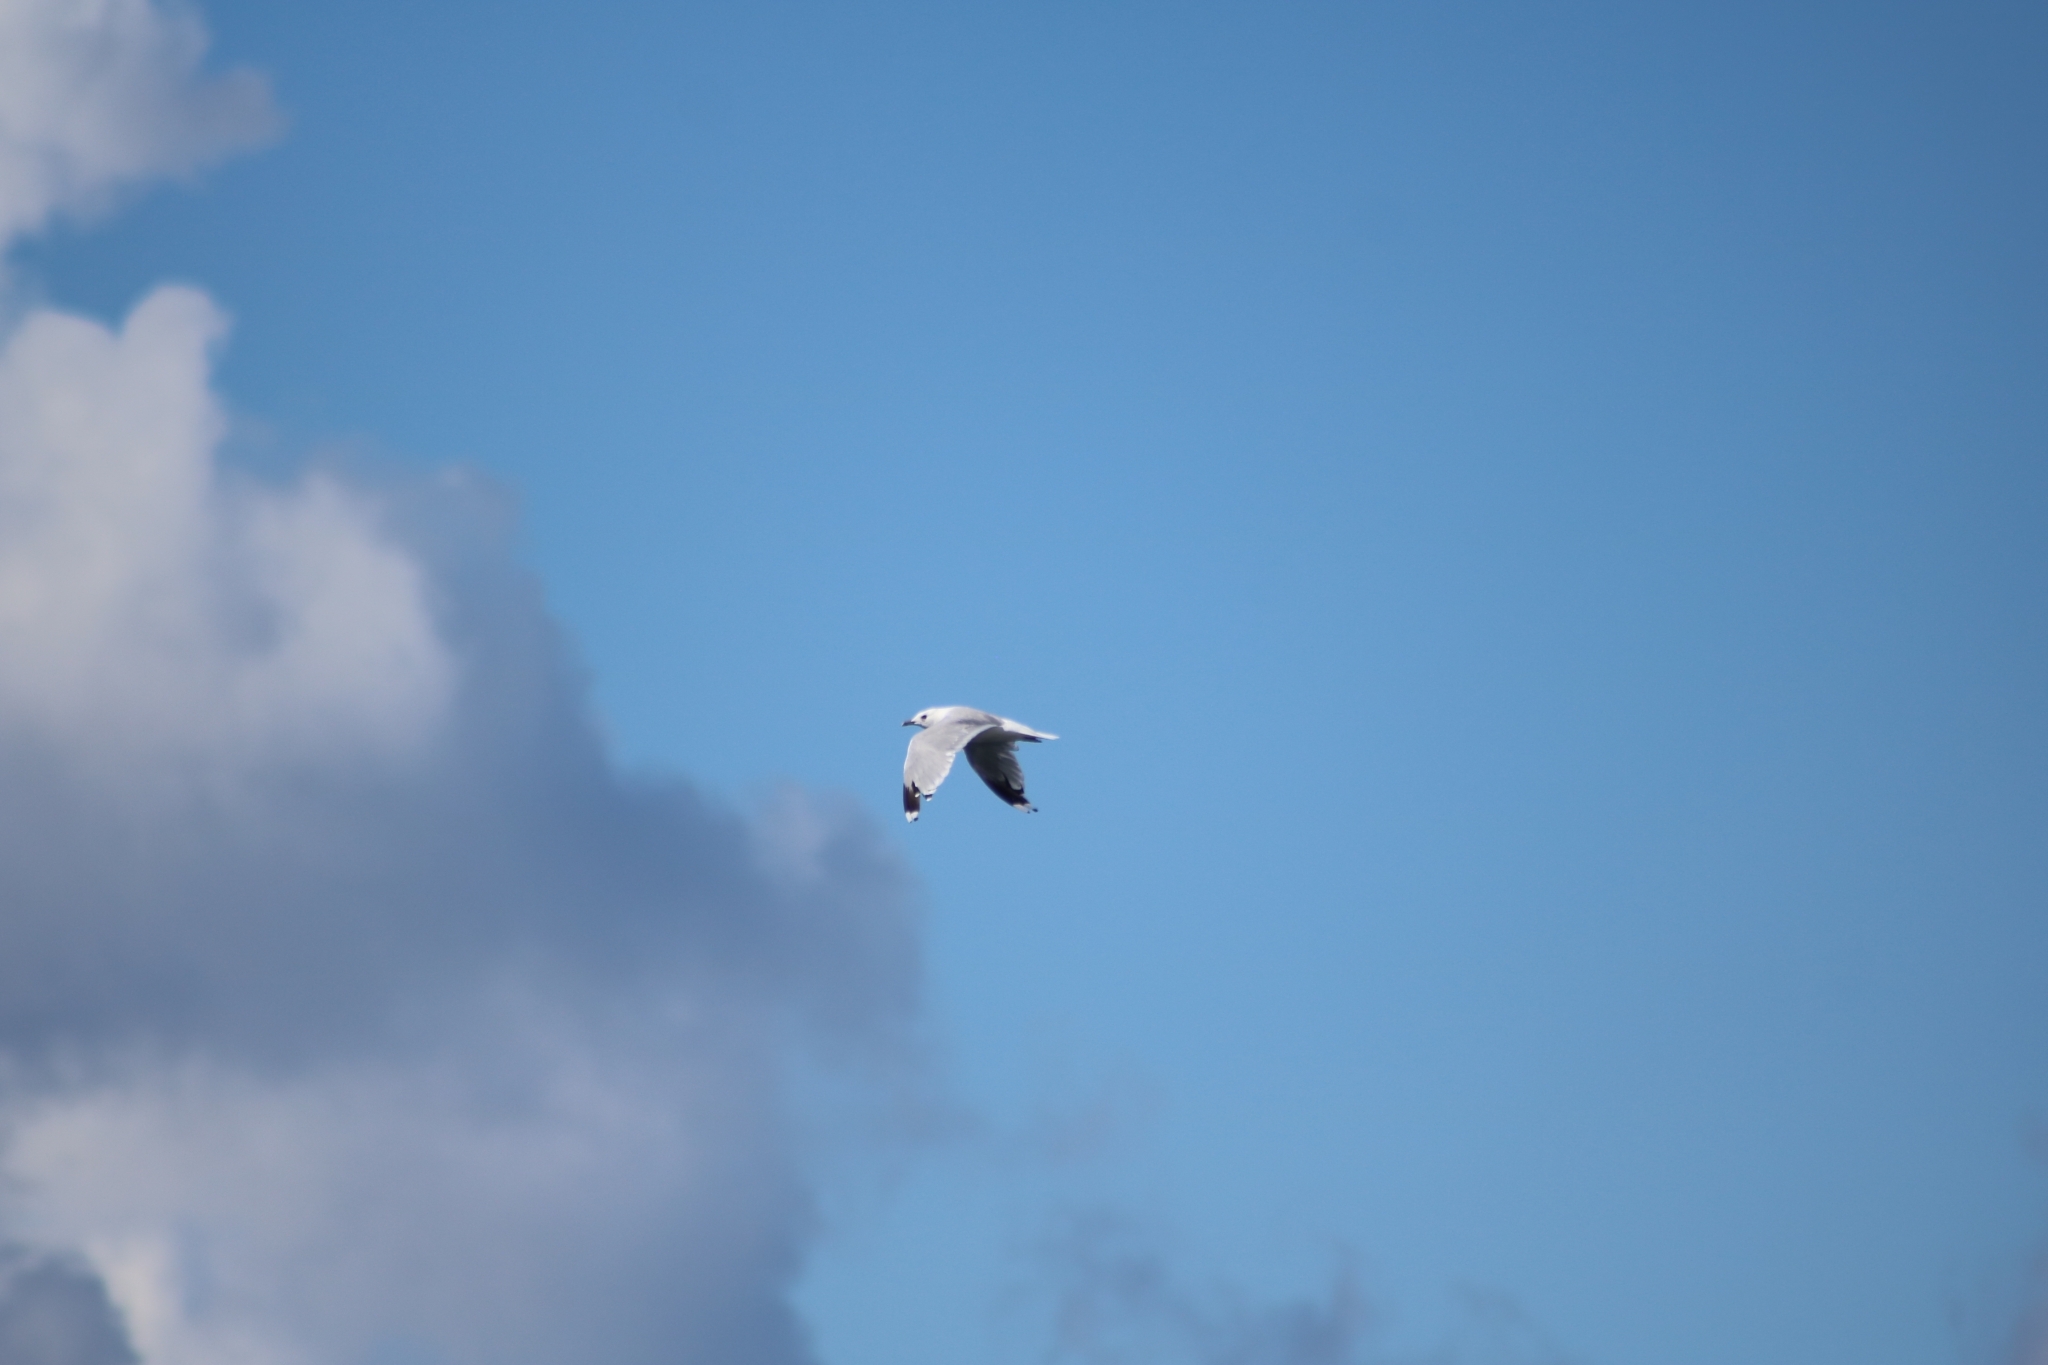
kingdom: Animalia
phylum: Chordata
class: Aves
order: Charadriiformes
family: Laridae
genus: Larus
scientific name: Larus canus
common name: Mew gull
